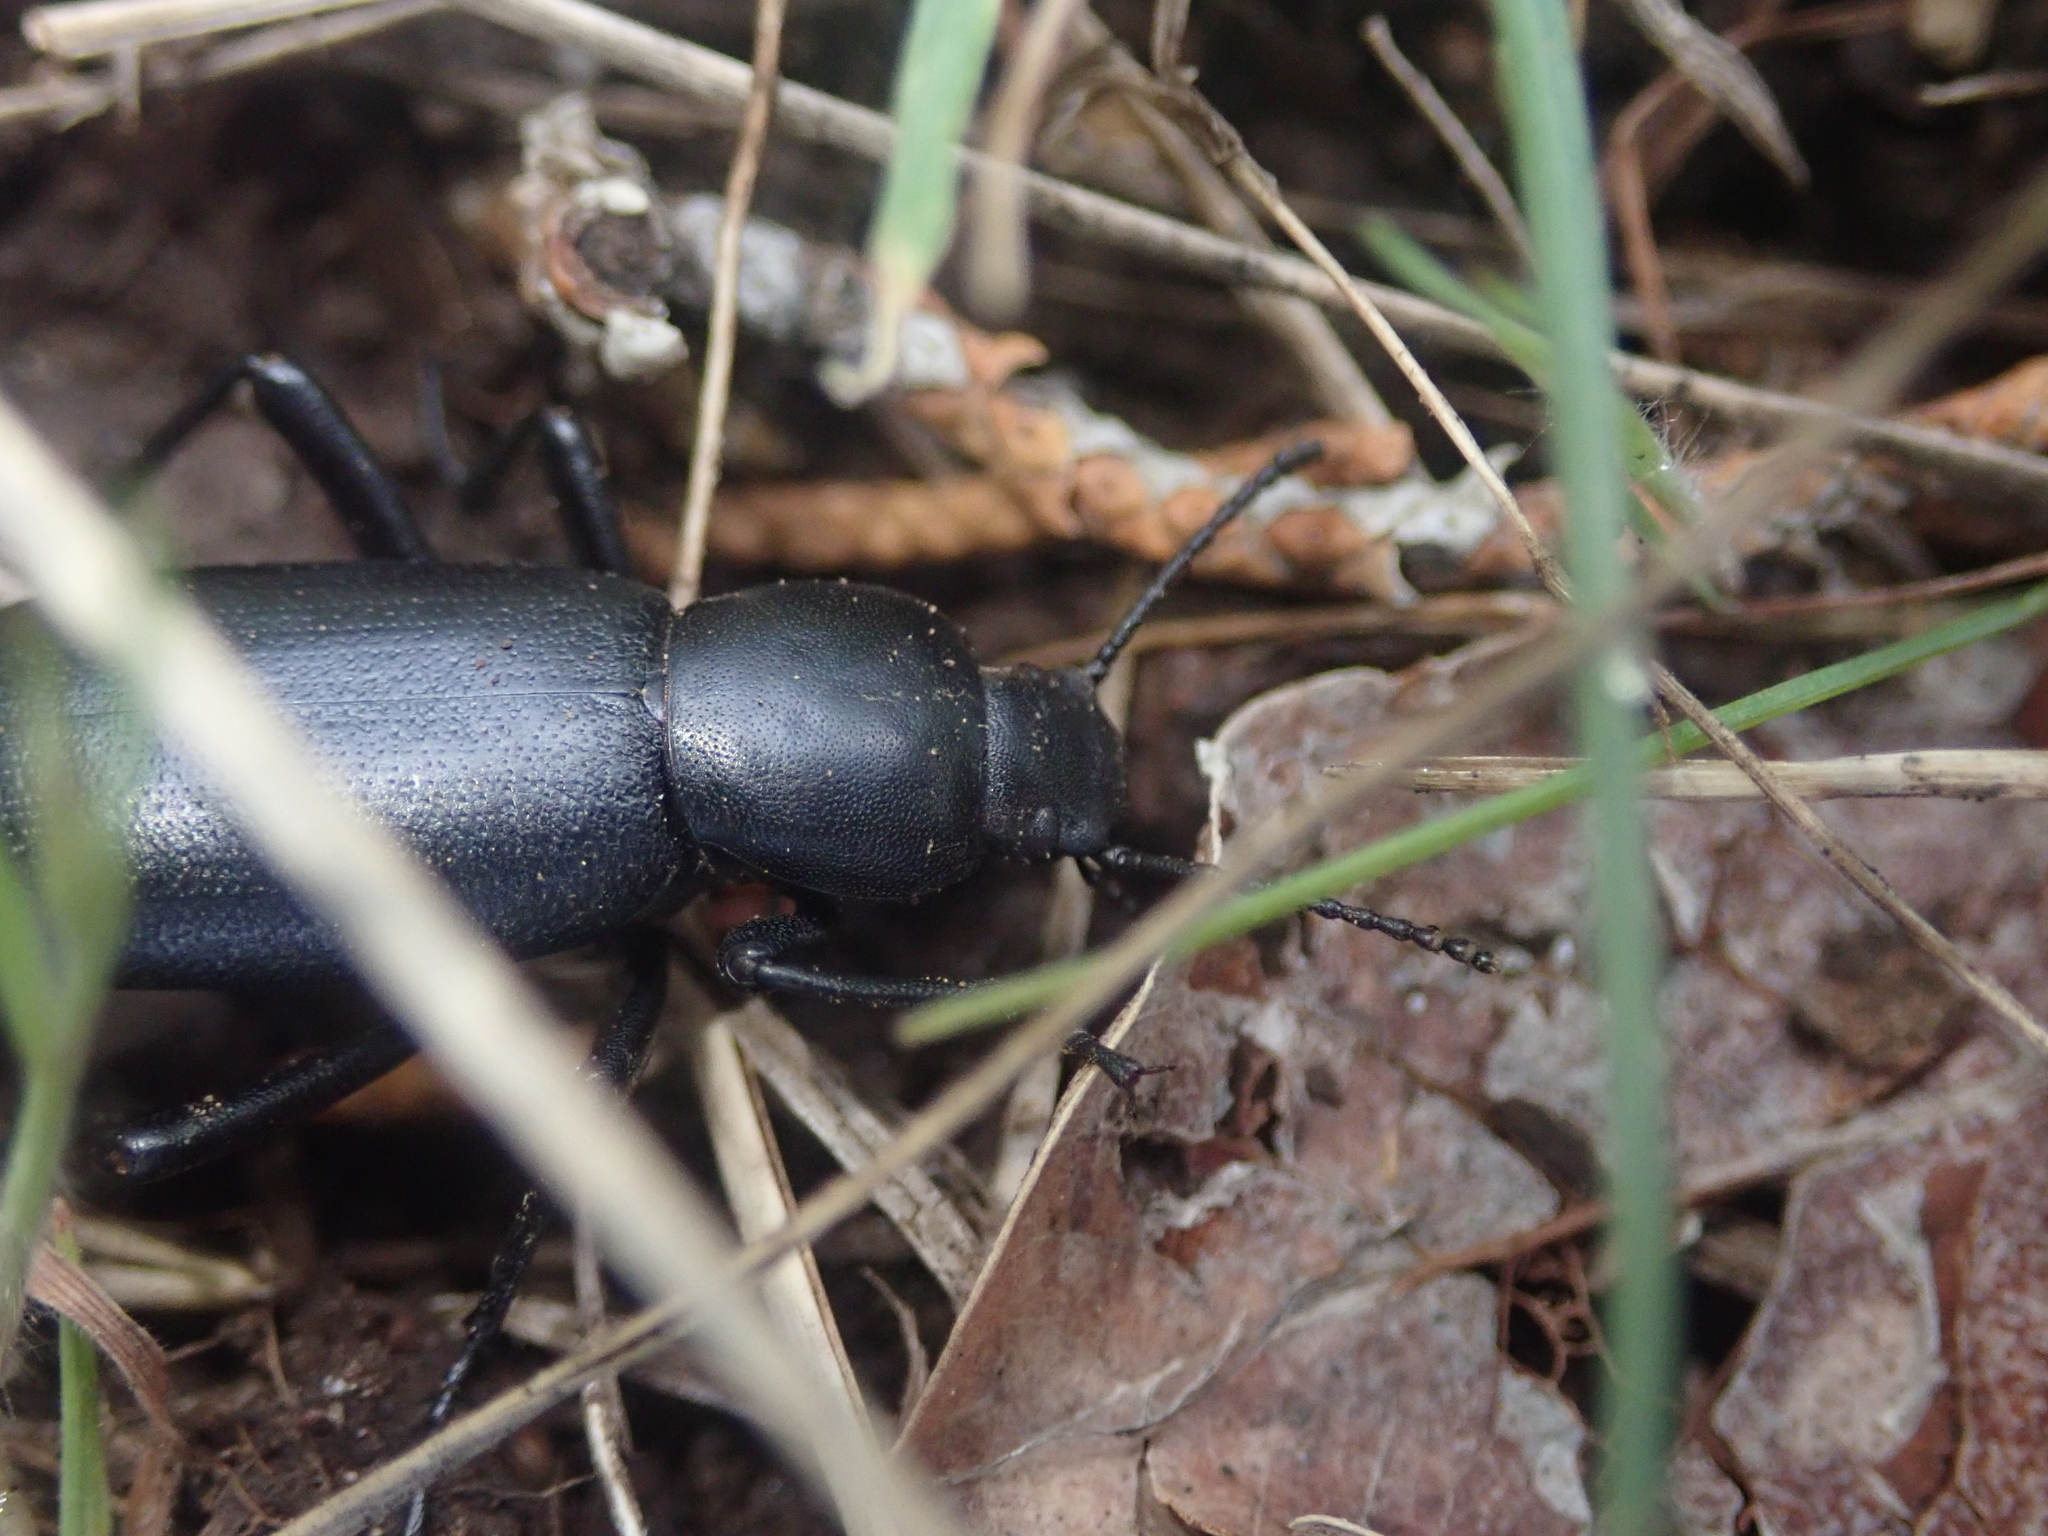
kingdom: Animalia
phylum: Arthropoda
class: Insecta
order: Coleoptera
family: Tenebrionidae
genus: Eleodes
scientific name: Eleodes nigrina
